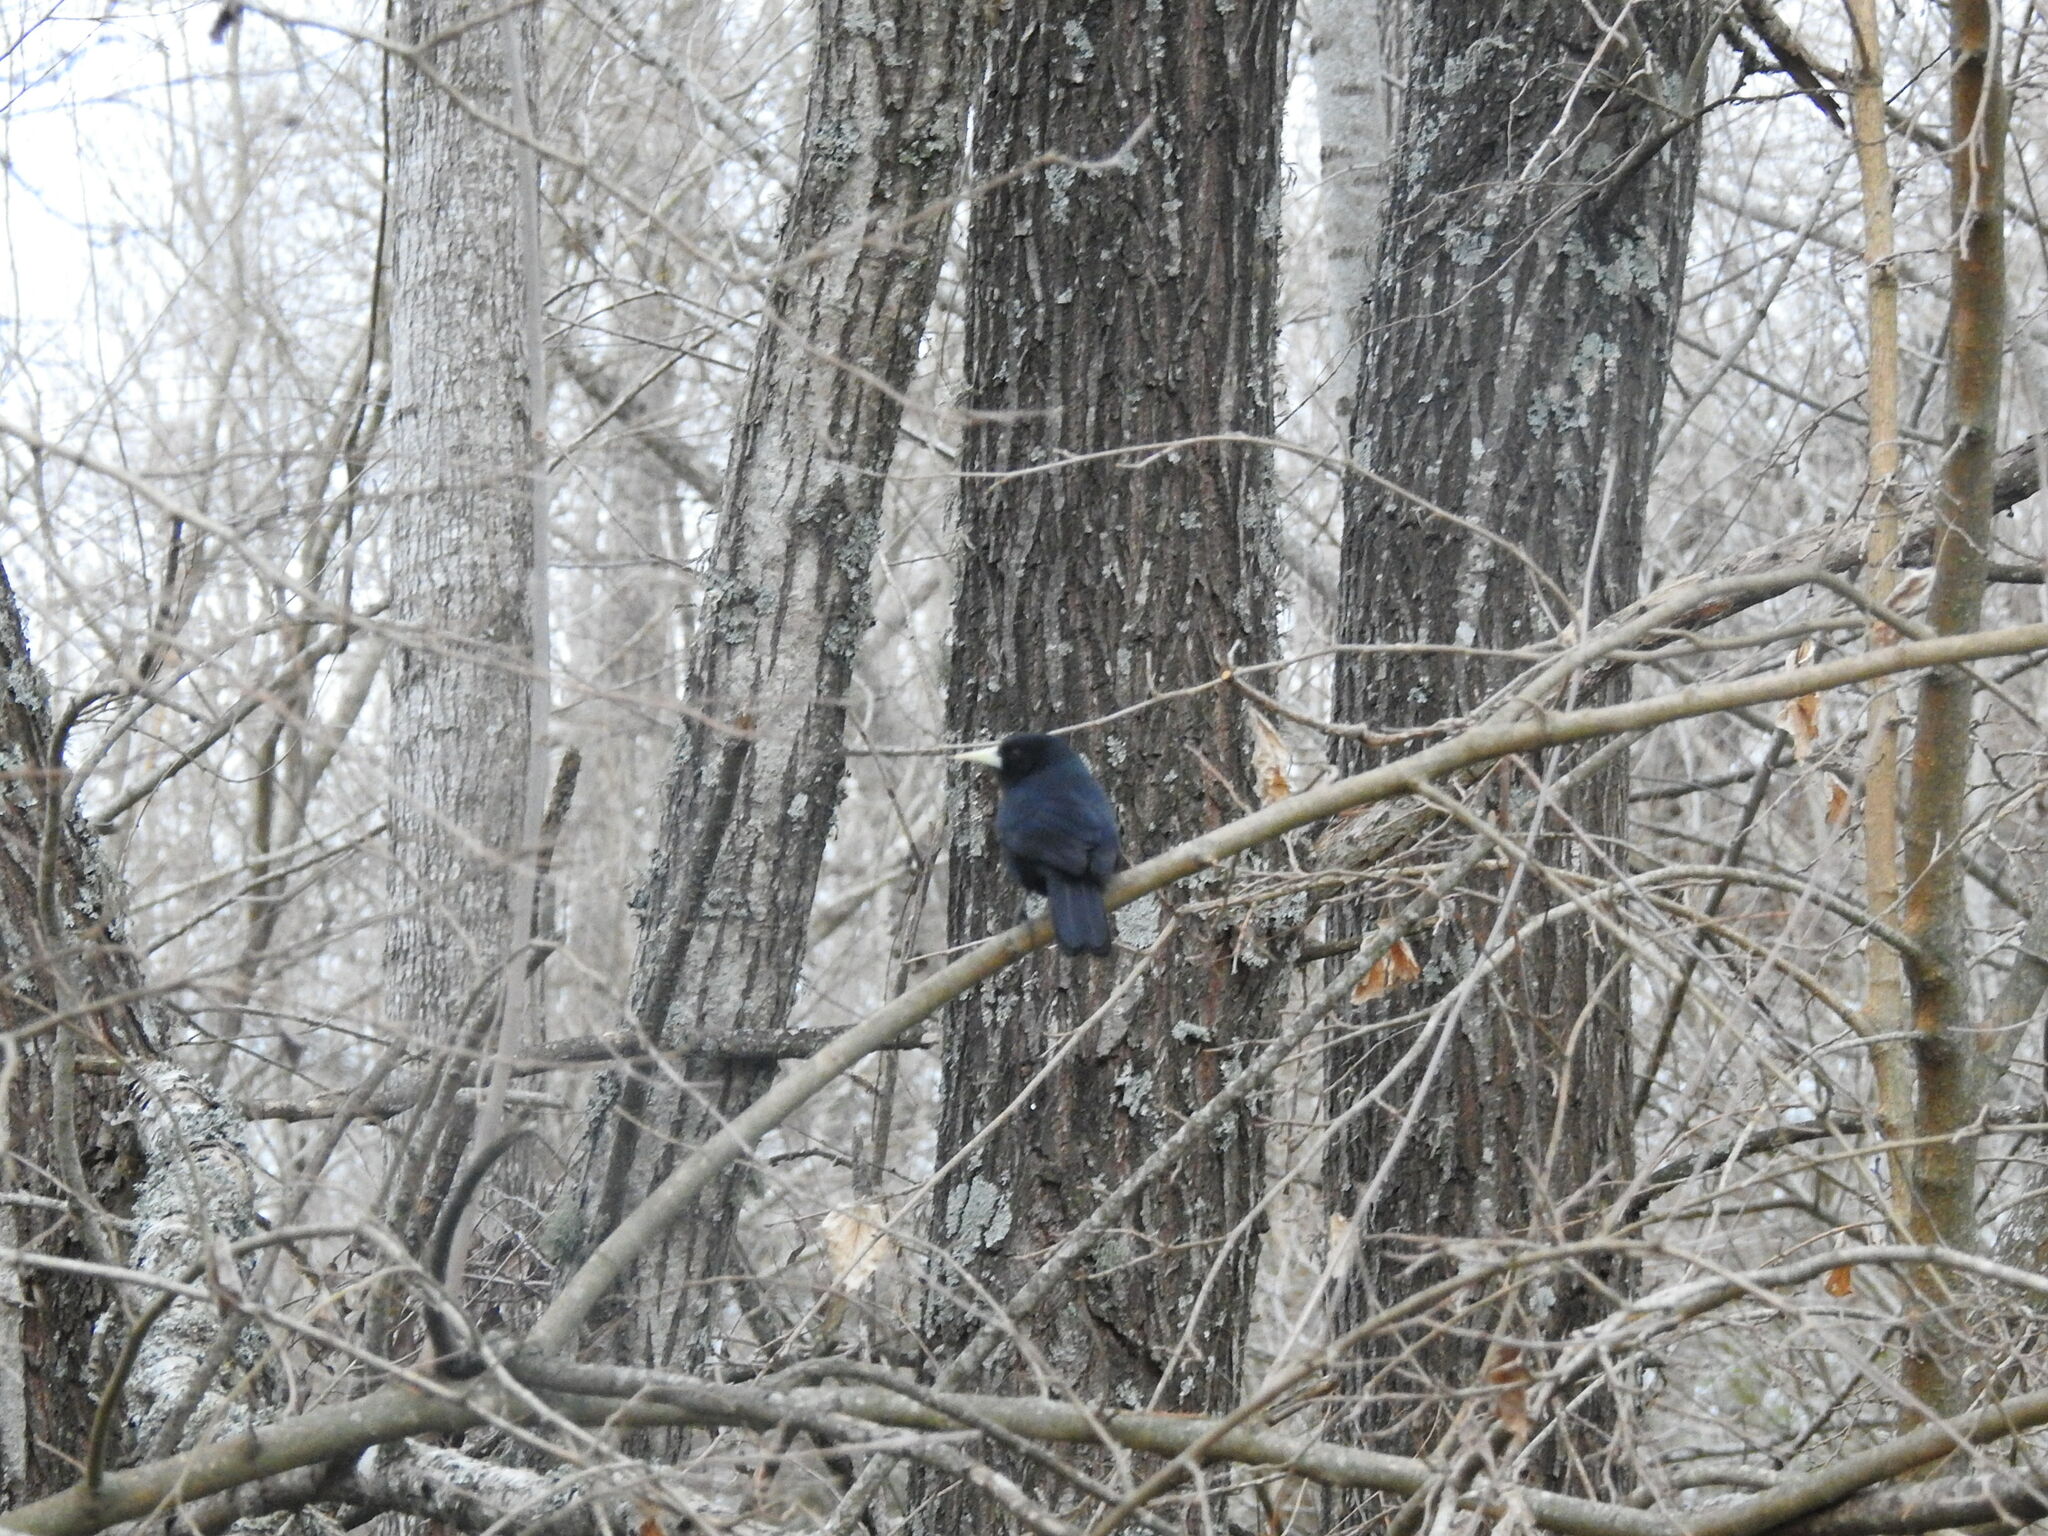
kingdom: Animalia
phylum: Chordata
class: Aves
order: Passeriformes
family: Icteridae
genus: Cacicus
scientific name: Cacicus solitarius
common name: Solitary cacique
